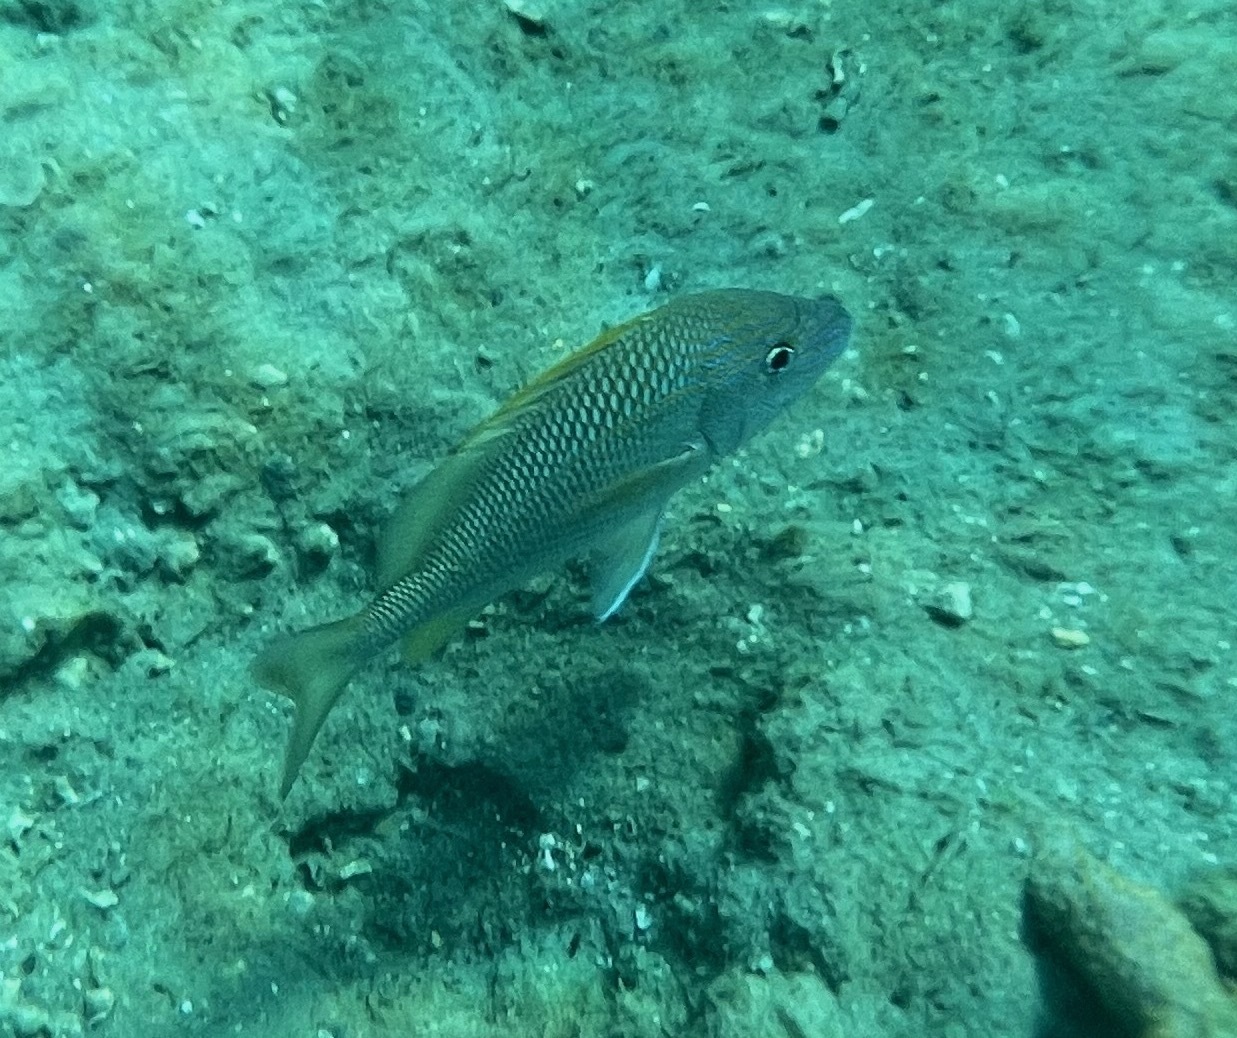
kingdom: Animalia
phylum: Chordata
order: Perciformes
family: Haemulidae
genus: Haemulon
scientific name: Haemulon plumierii
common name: White grunt
